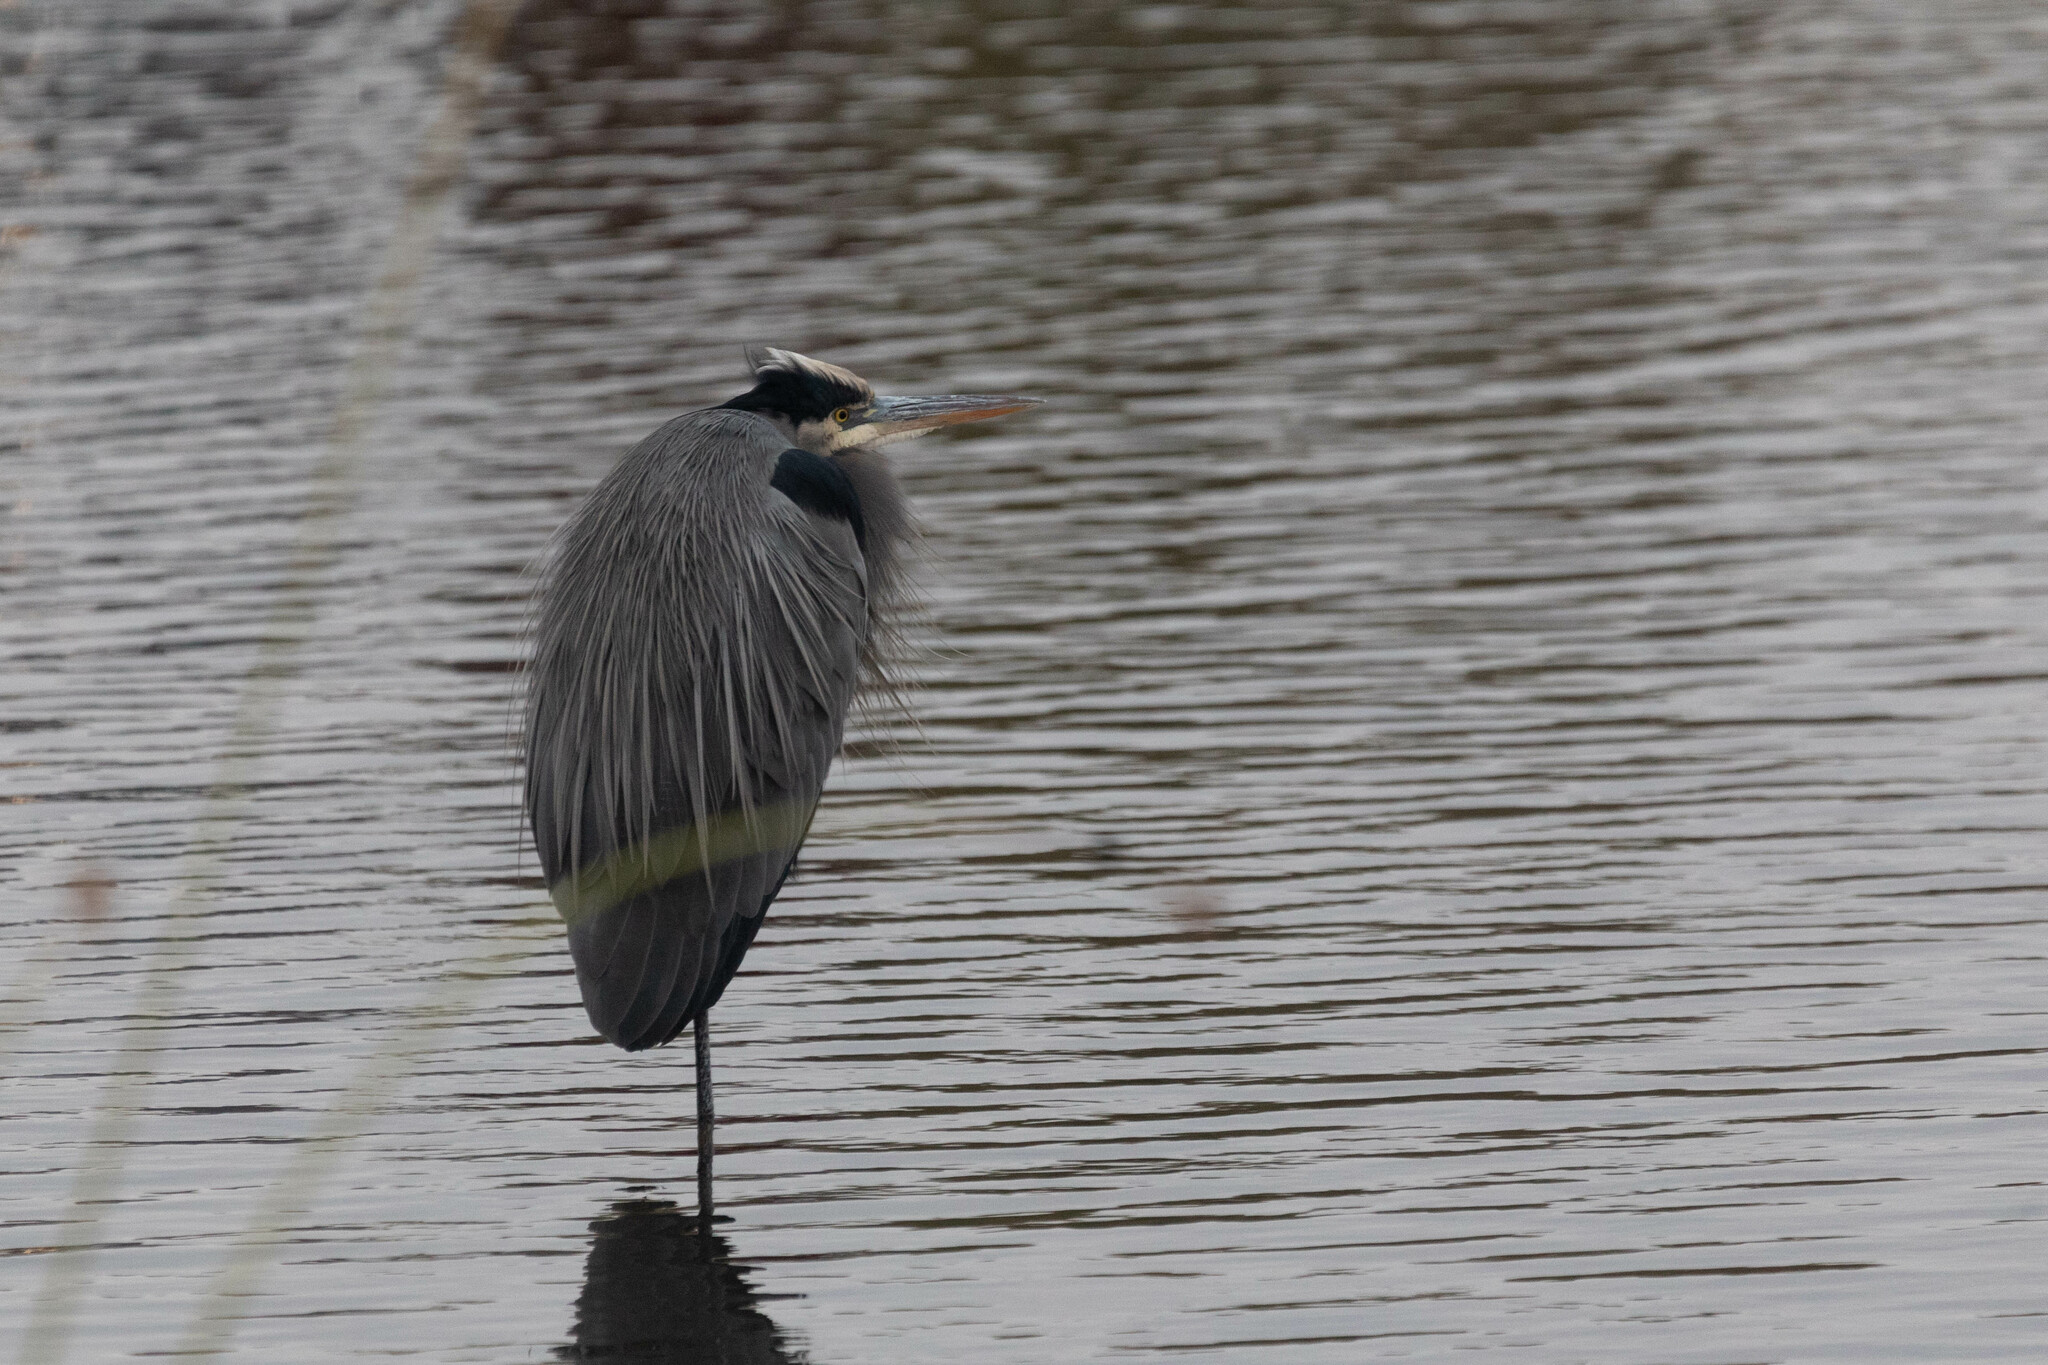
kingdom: Animalia
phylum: Chordata
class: Aves
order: Pelecaniformes
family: Ardeidae
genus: Ardea
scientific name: Ardea herodias
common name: Great blue heron
